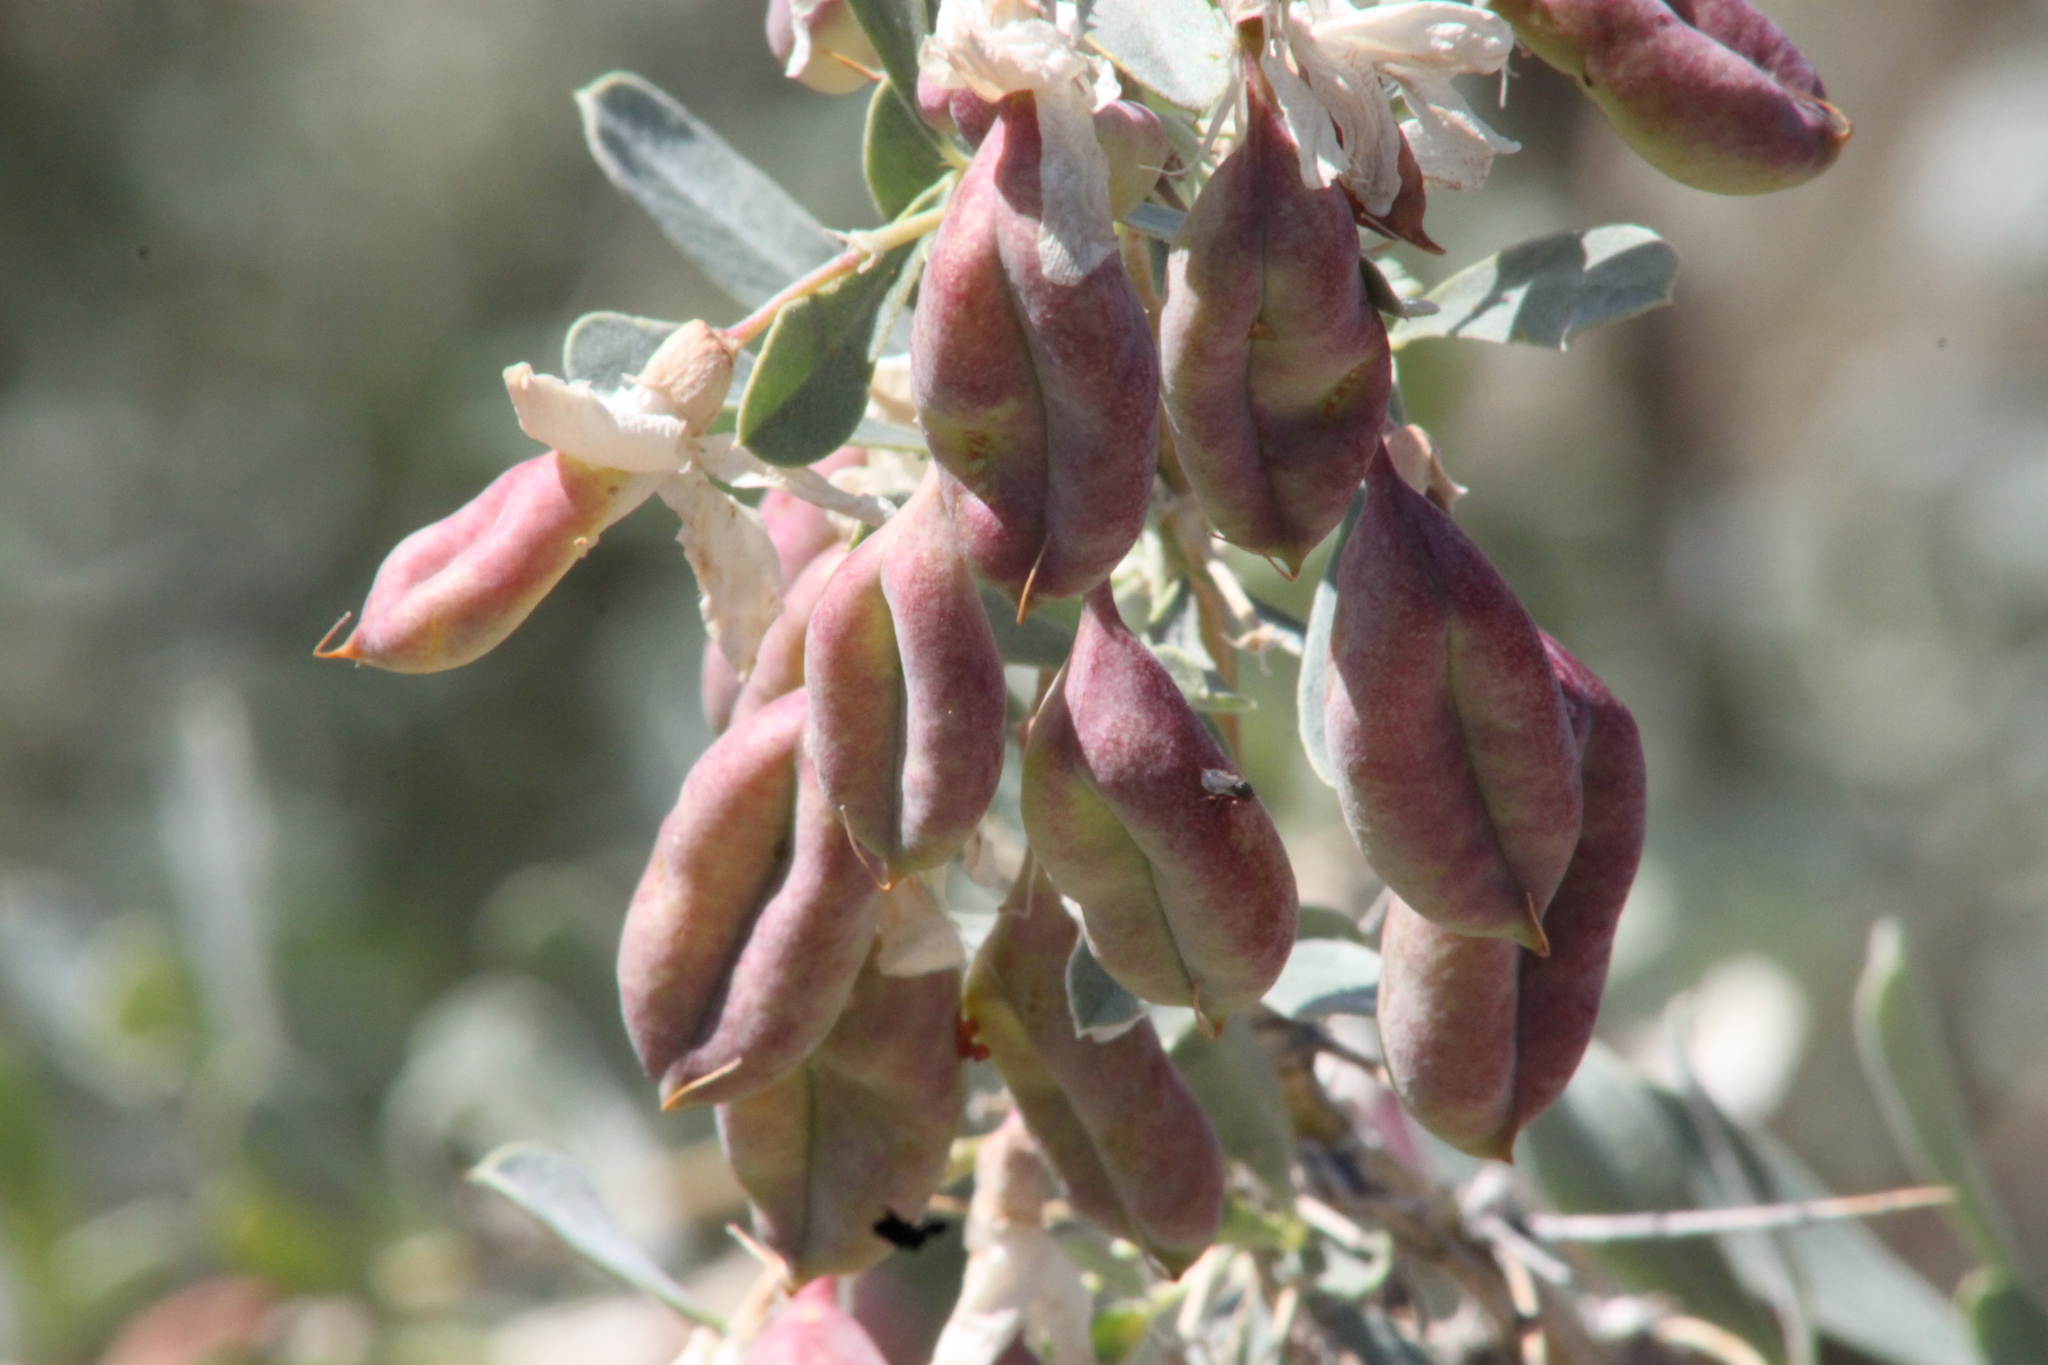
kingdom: Plantae
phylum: Tracheophyta
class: Magnoliopsida
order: Fabales
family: Fabaceae
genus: Caragana
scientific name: Caragana halodendron
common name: Siberian salt-tree
